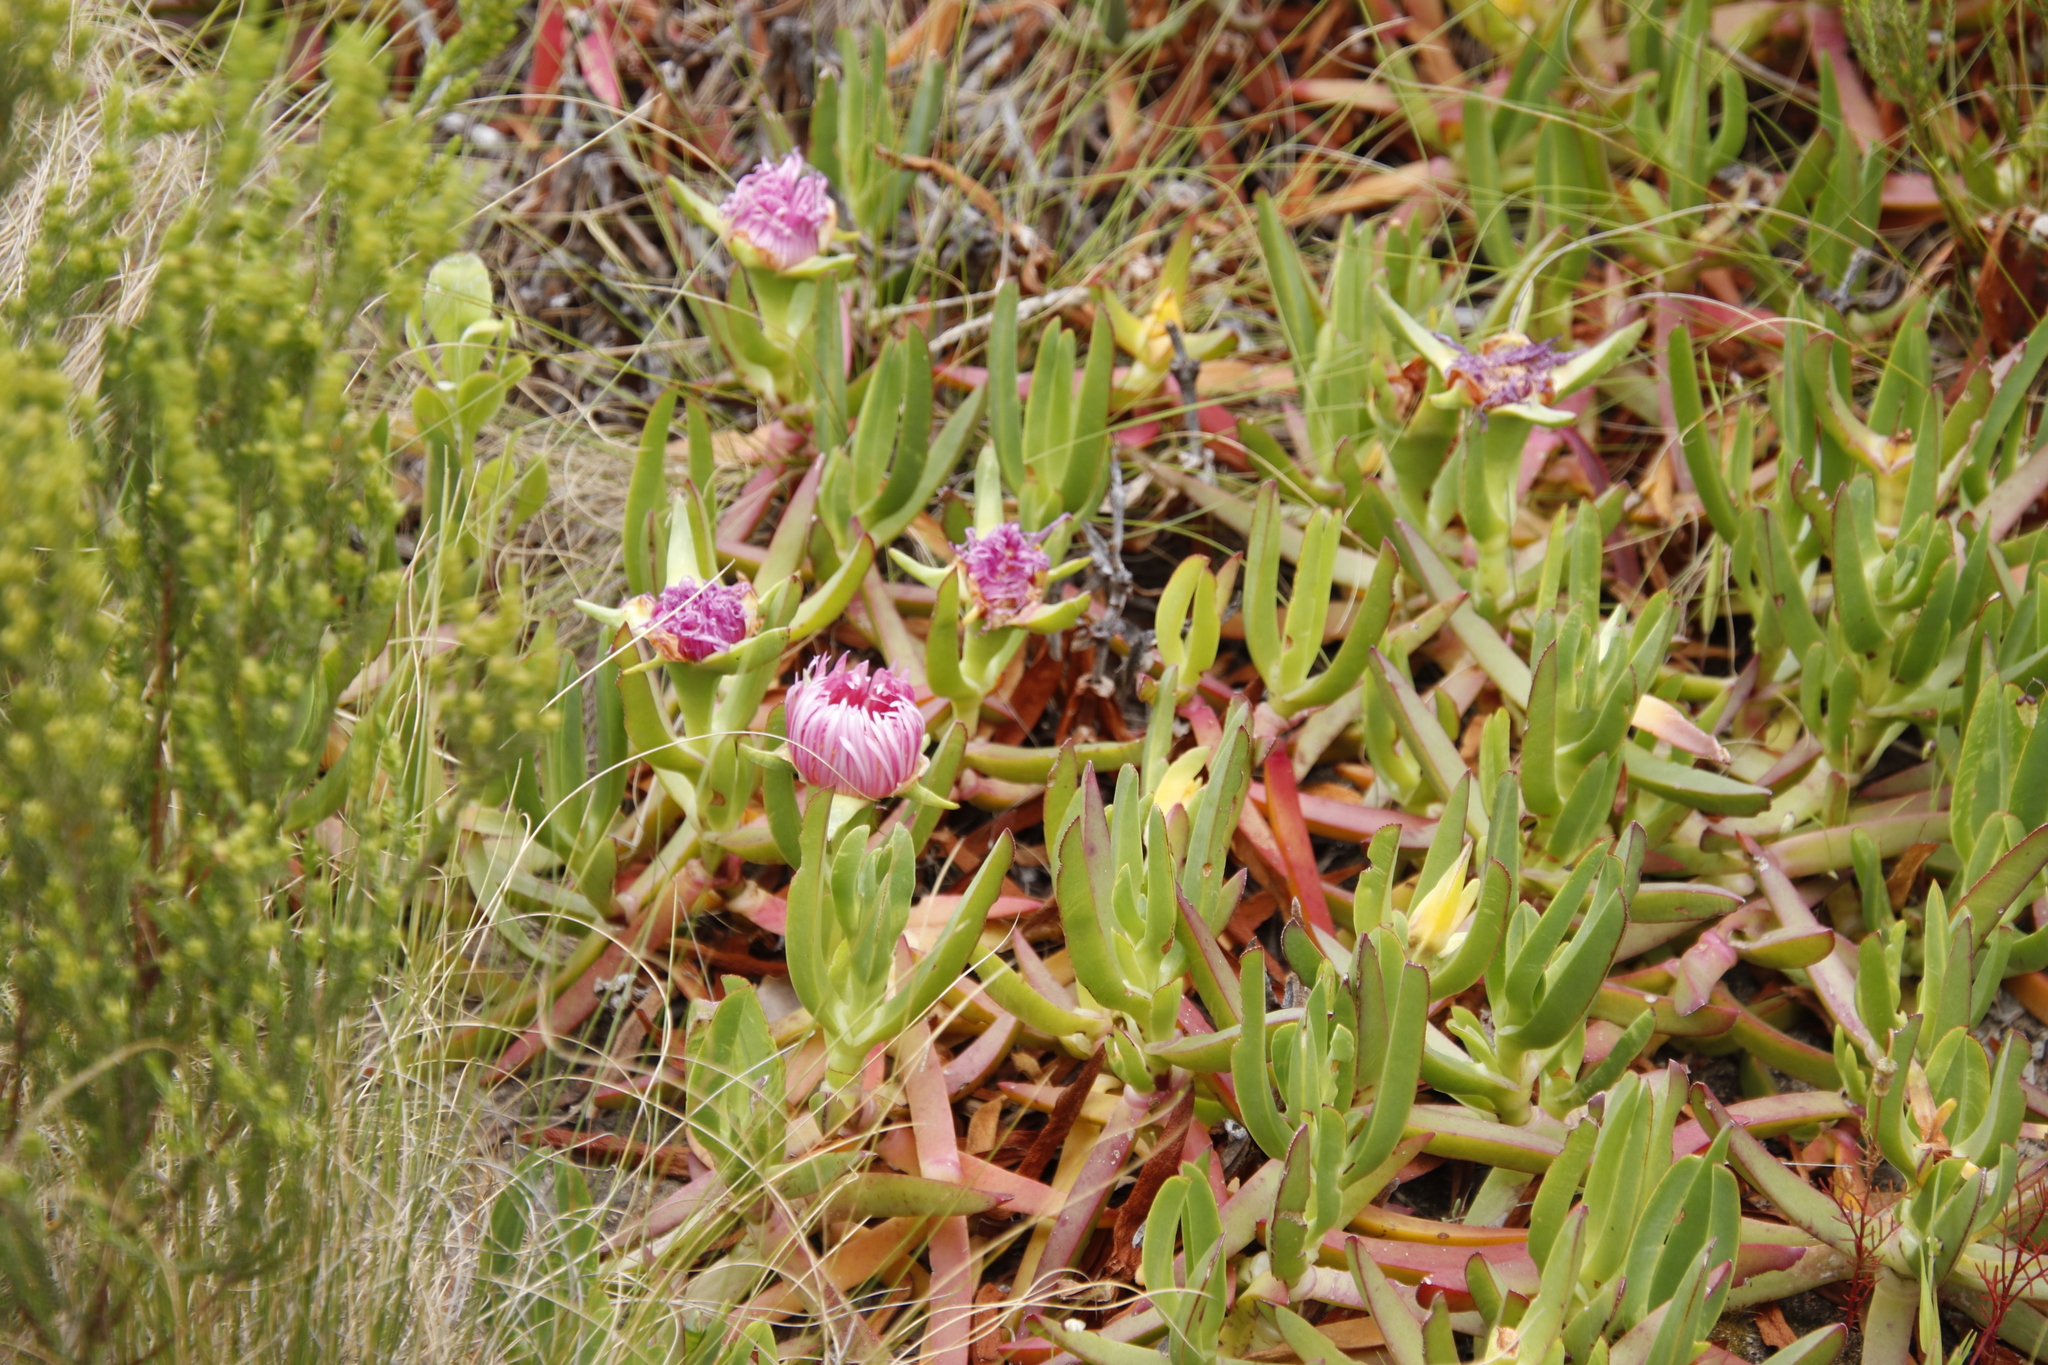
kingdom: Plantae
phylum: Tracheophyta
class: Magnoliopsida
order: Caryophyllales
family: Aizoaceae
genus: Carpobrotus
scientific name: Carpobrotus edulis
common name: Hottentot-fig
